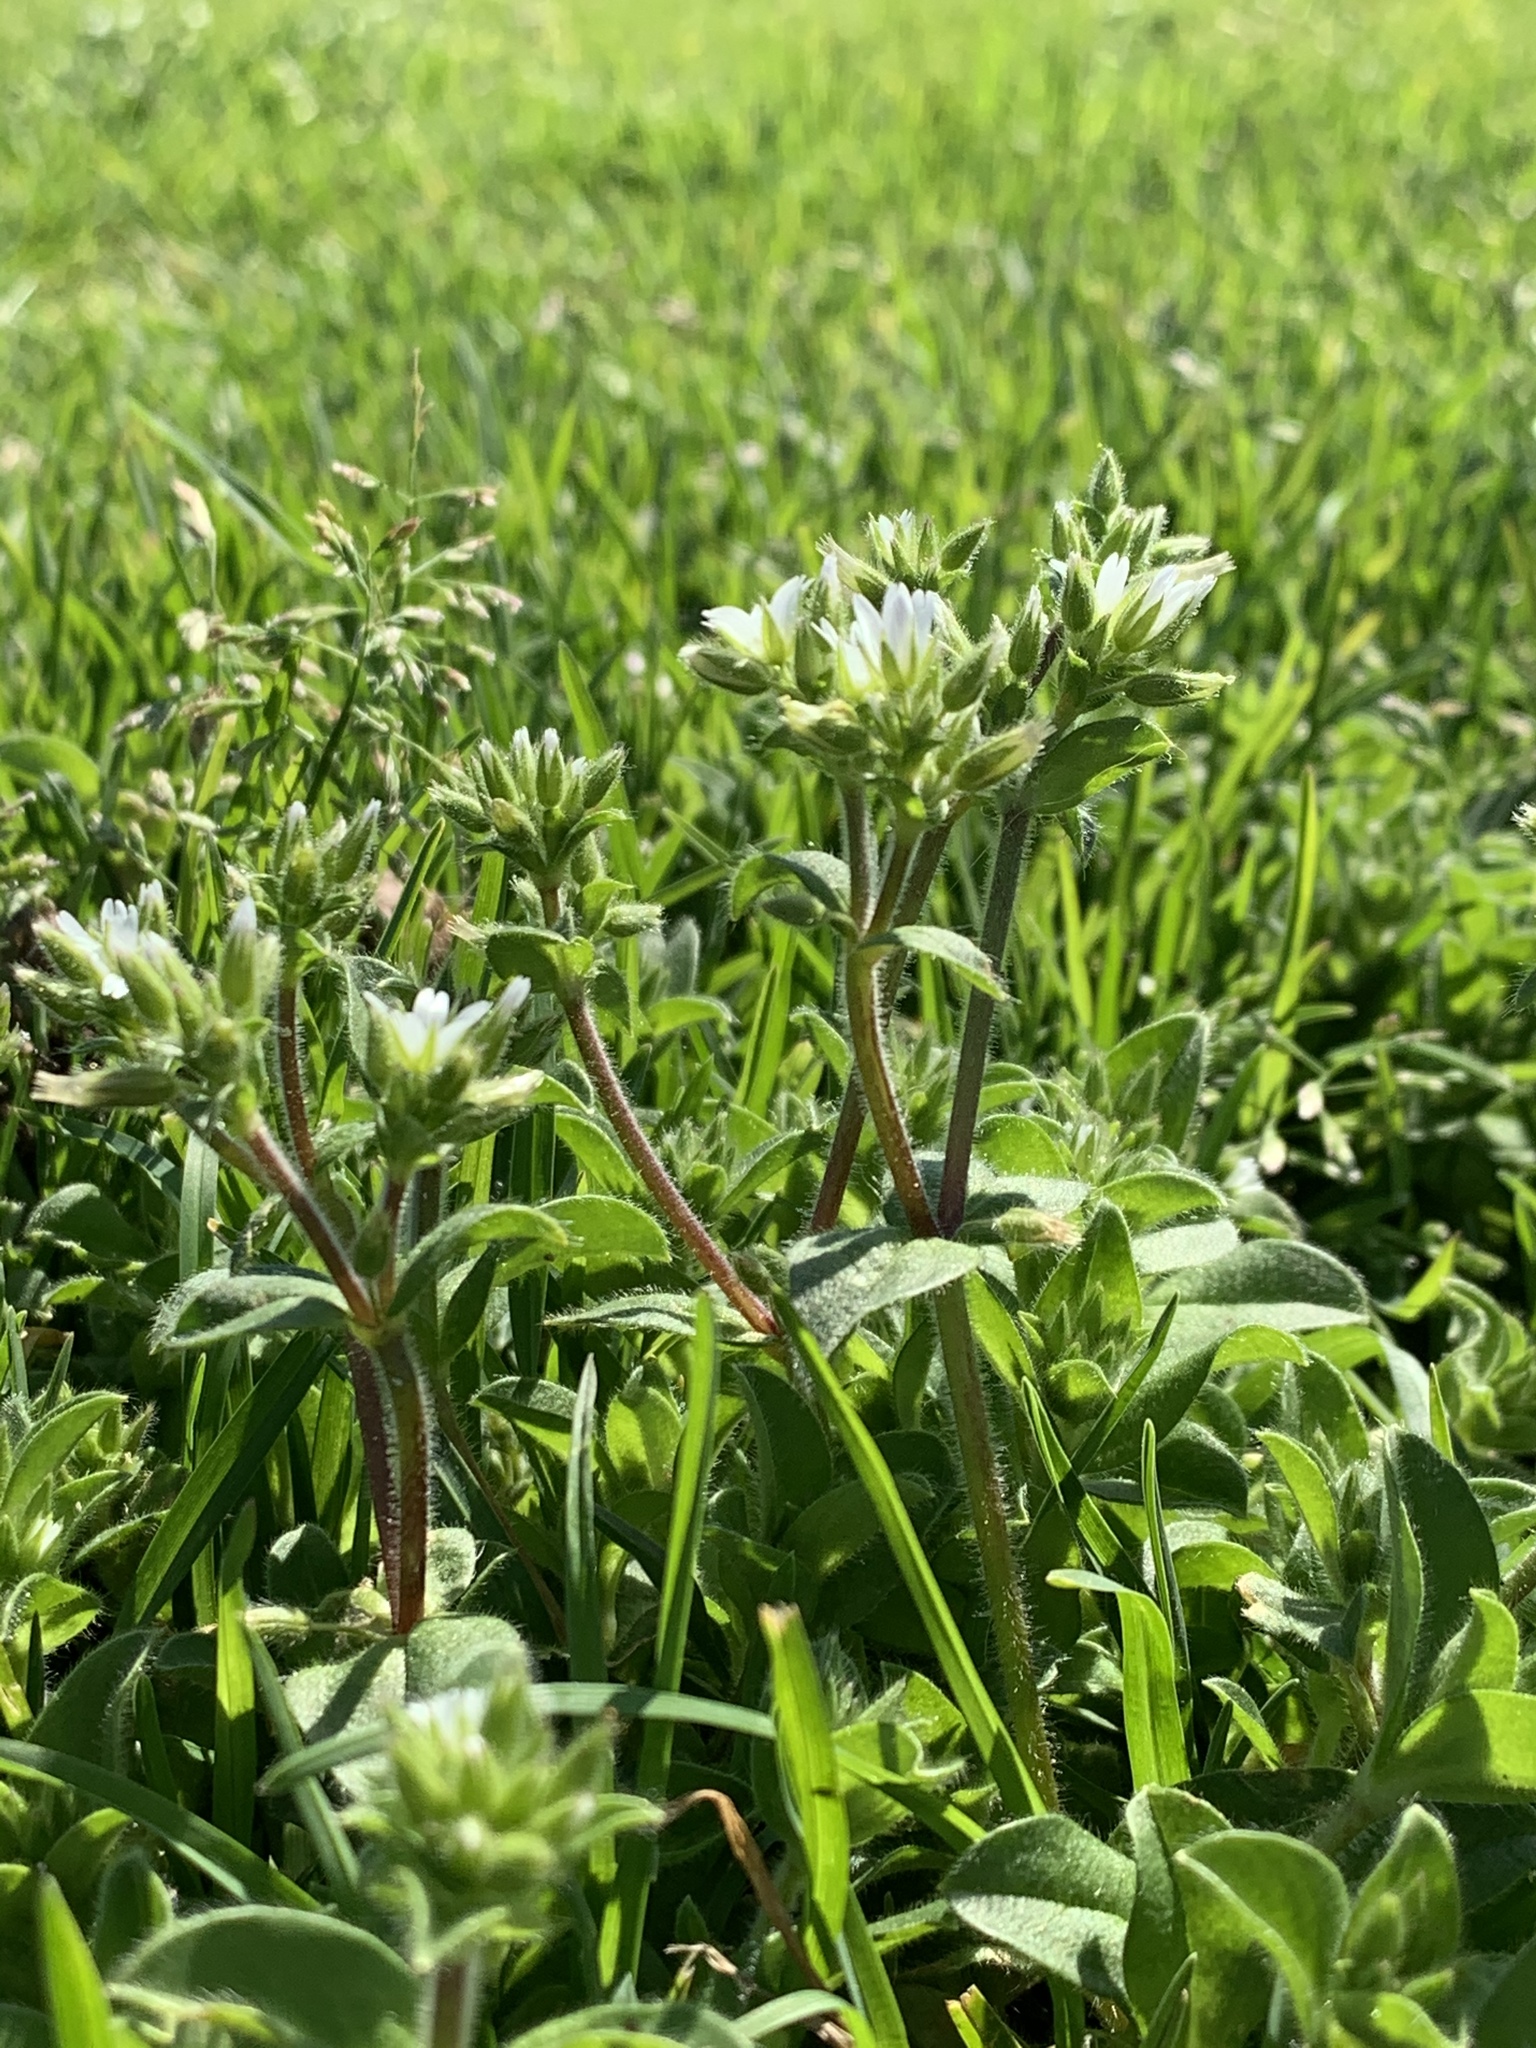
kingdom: Plantae
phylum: Tracheophyta
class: Magnoliopsida
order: Caryophyllales
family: Caryophyllaceae
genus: Cerastium
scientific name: Cerastium glomeratum
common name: Sticky chickweed
